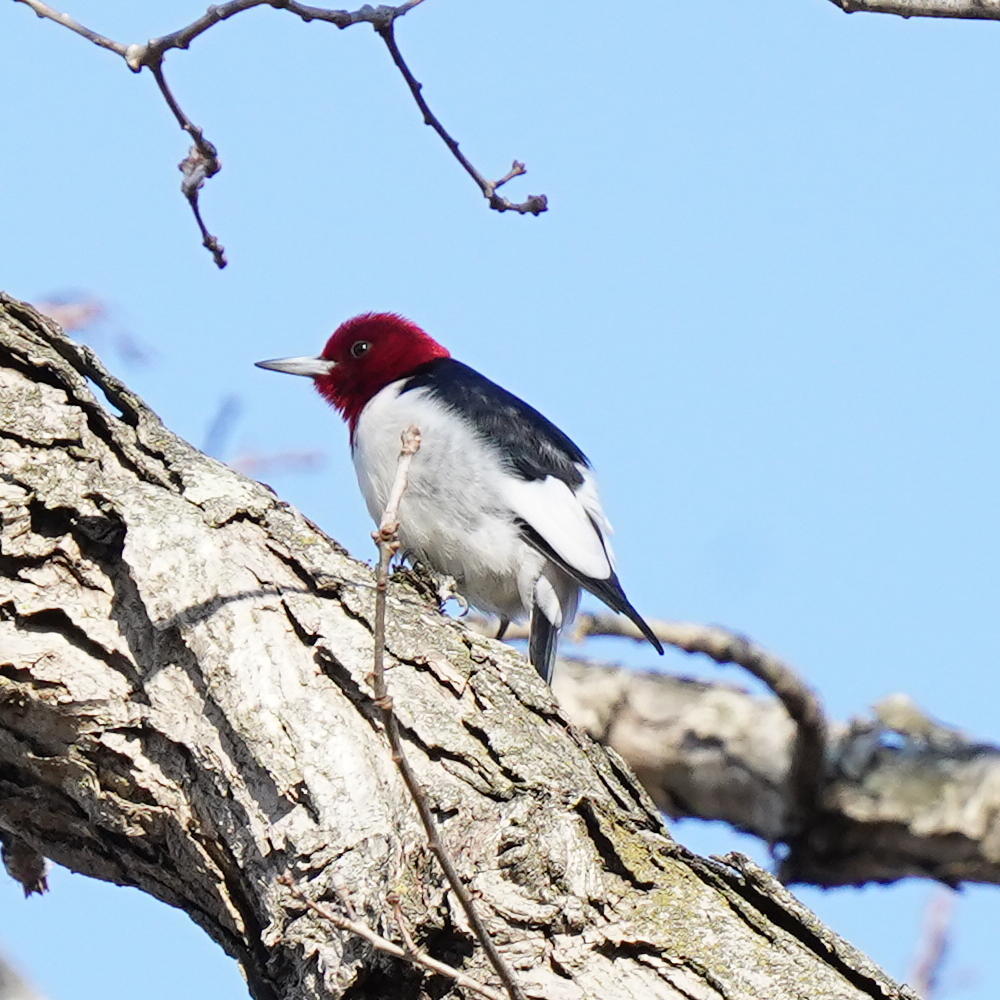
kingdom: Animalia
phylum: Chordata
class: Aves
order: Piciformes
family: Picidae
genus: Melanerpes
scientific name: Melanerpes erythrocephalus
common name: Red-headed woodpecker
